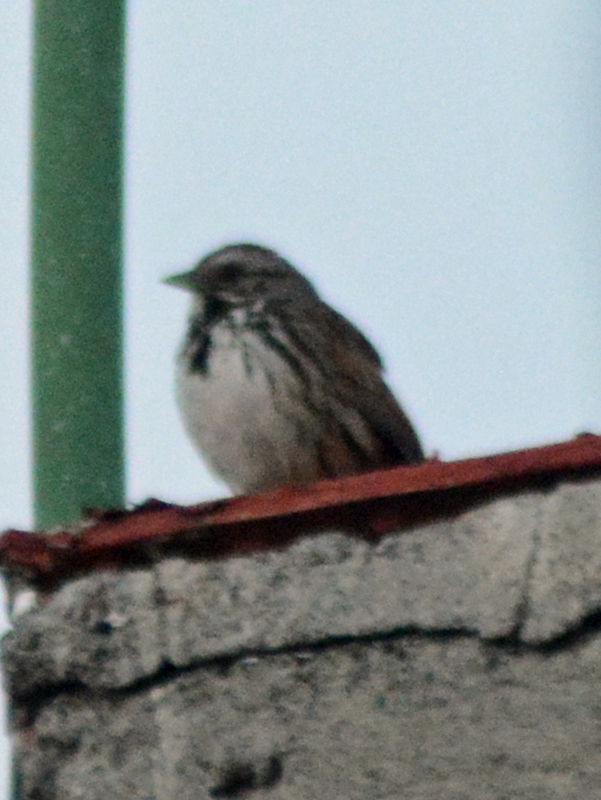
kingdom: Animalia
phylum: Chordata
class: Aves
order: Passeriformes
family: Passerellidae
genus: Melospiza
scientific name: Melospiza melodia
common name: Song sparrow
